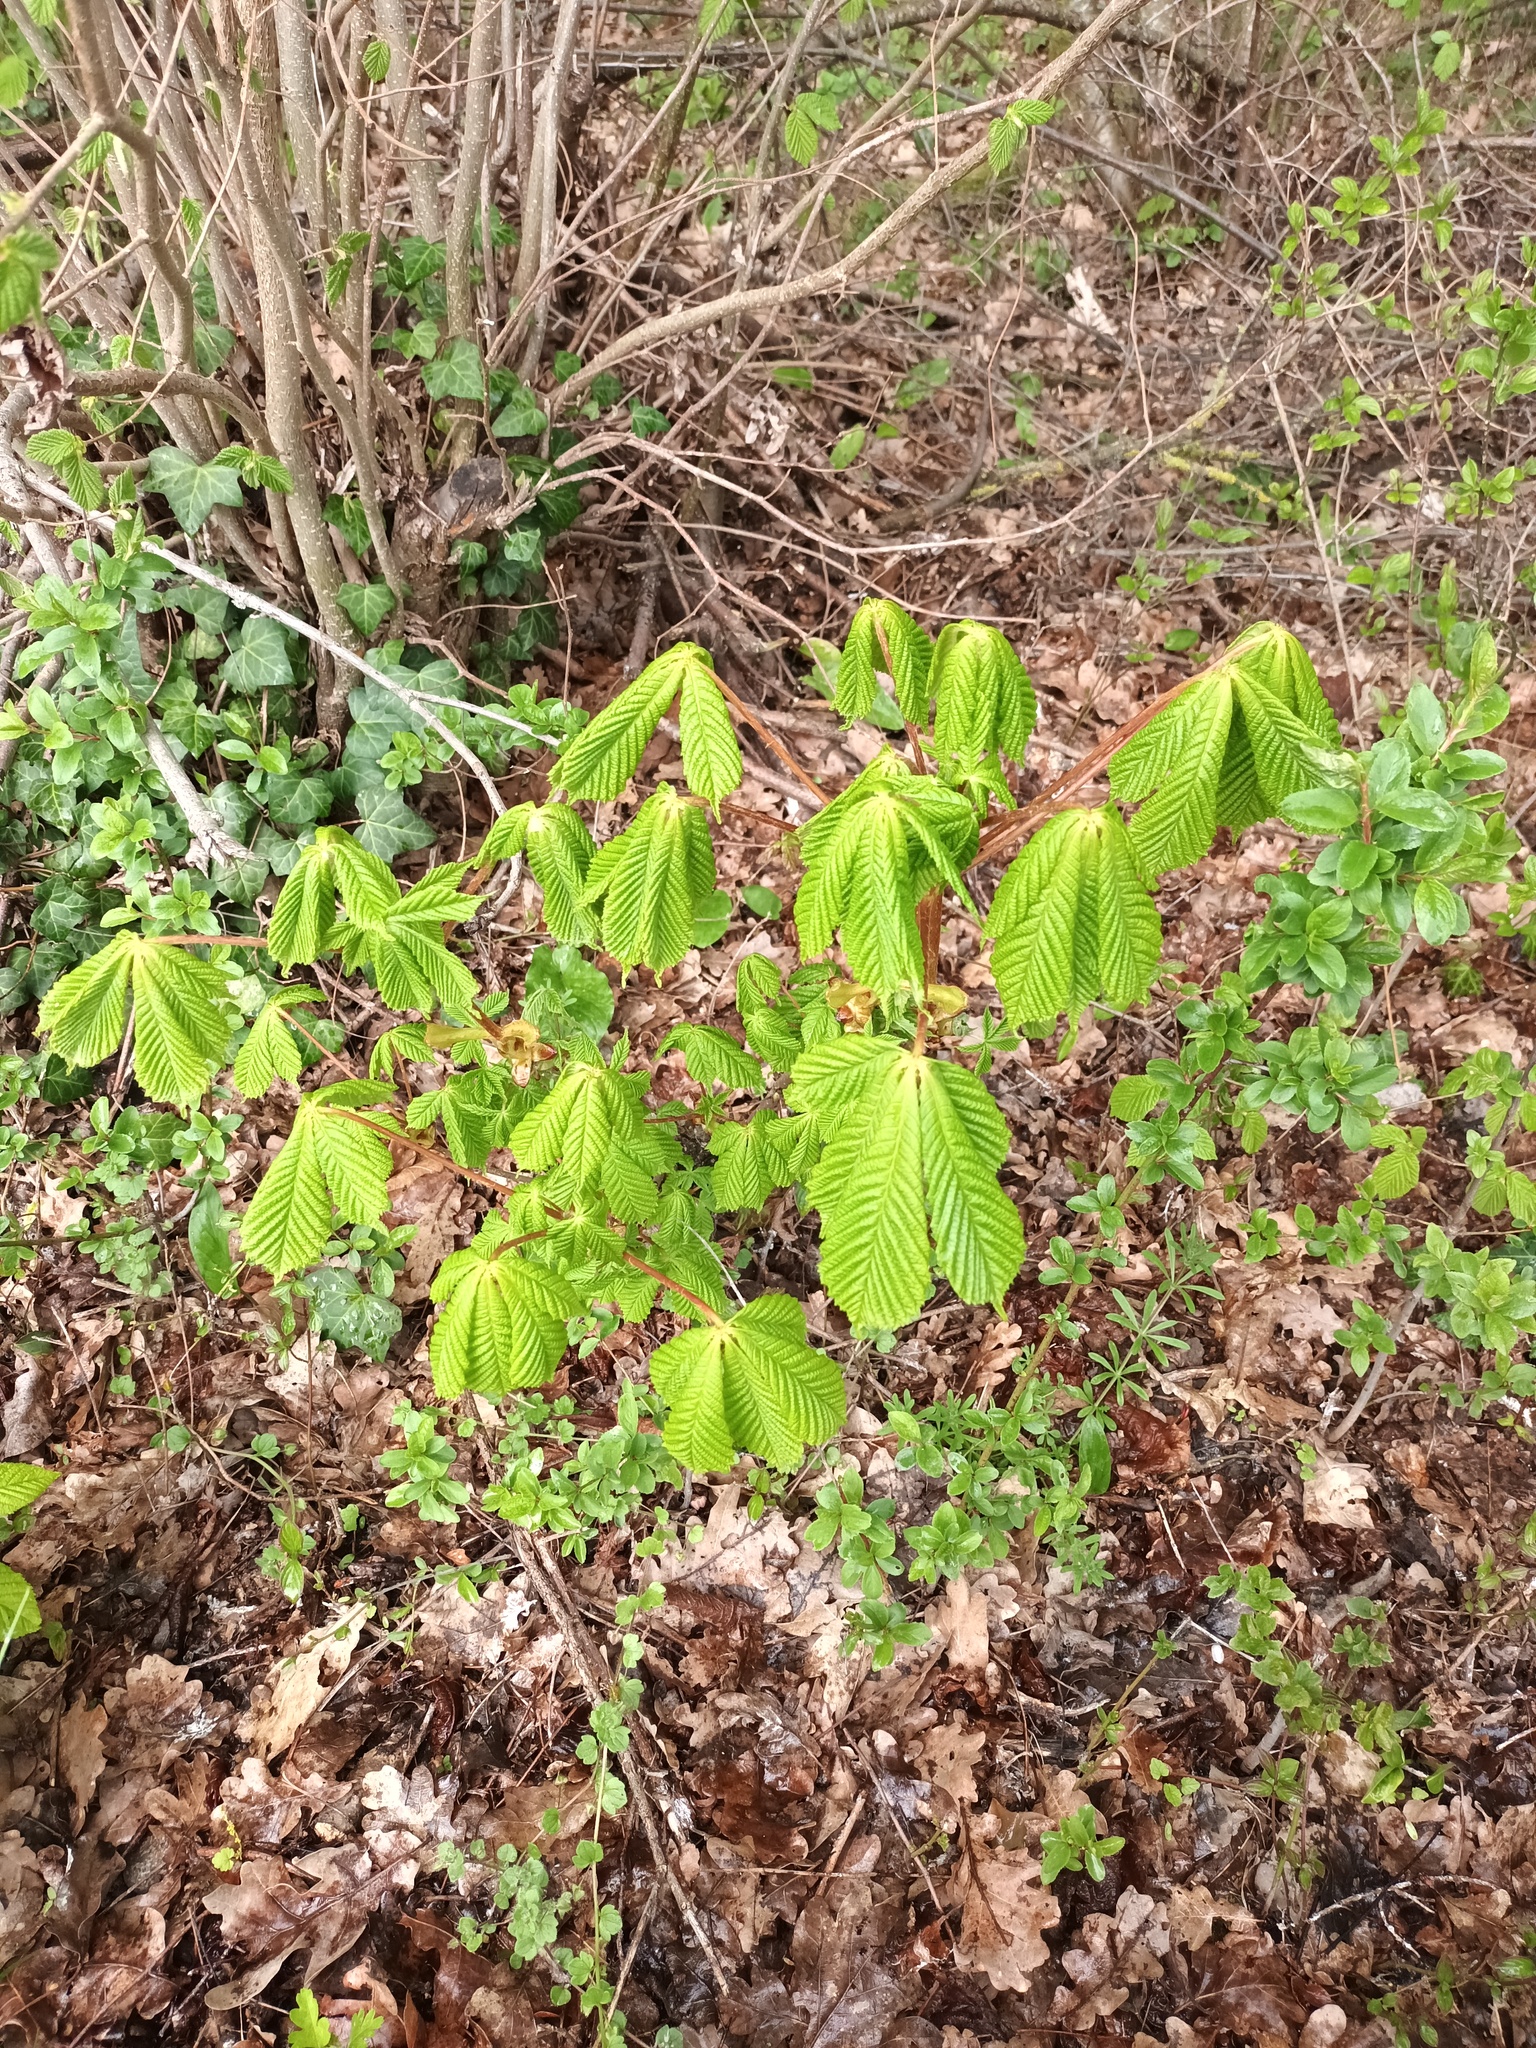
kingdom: Plantae
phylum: Tracheophyta
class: Magnoliopsida
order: Sapindales
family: Sapindaceae
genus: Aesculus
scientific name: Aesculus hippocastanum
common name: Horse-chestnut
